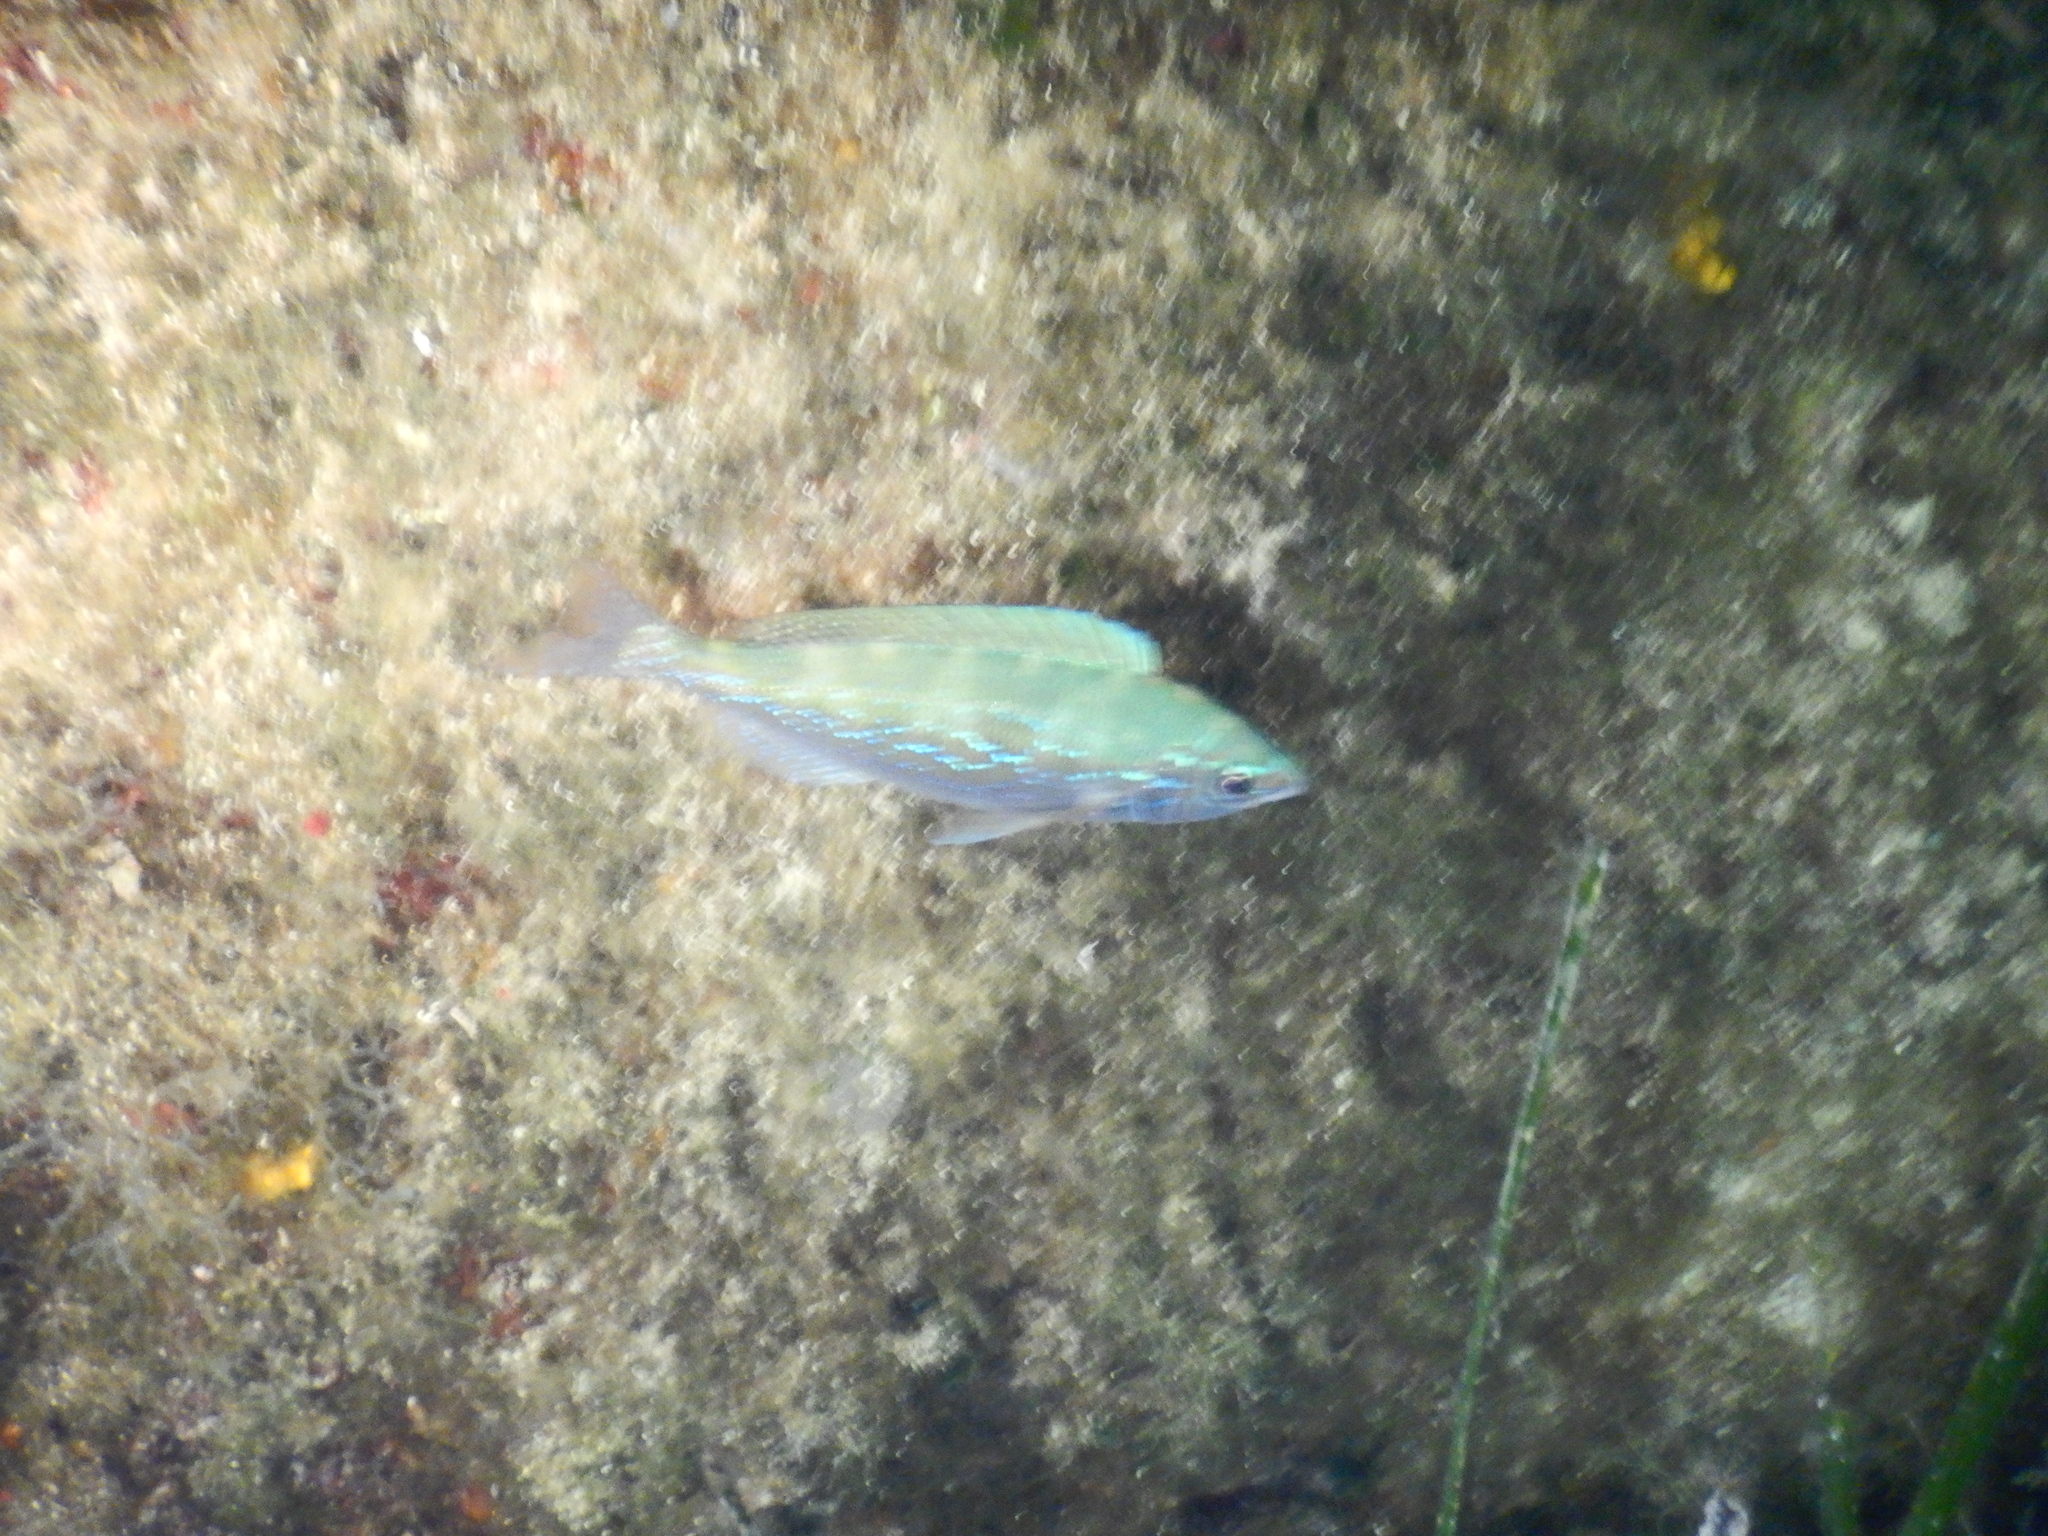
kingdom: Animalia
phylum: Chordata
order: Perciformes
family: Sparidae
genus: Spicara
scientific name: Spicara
